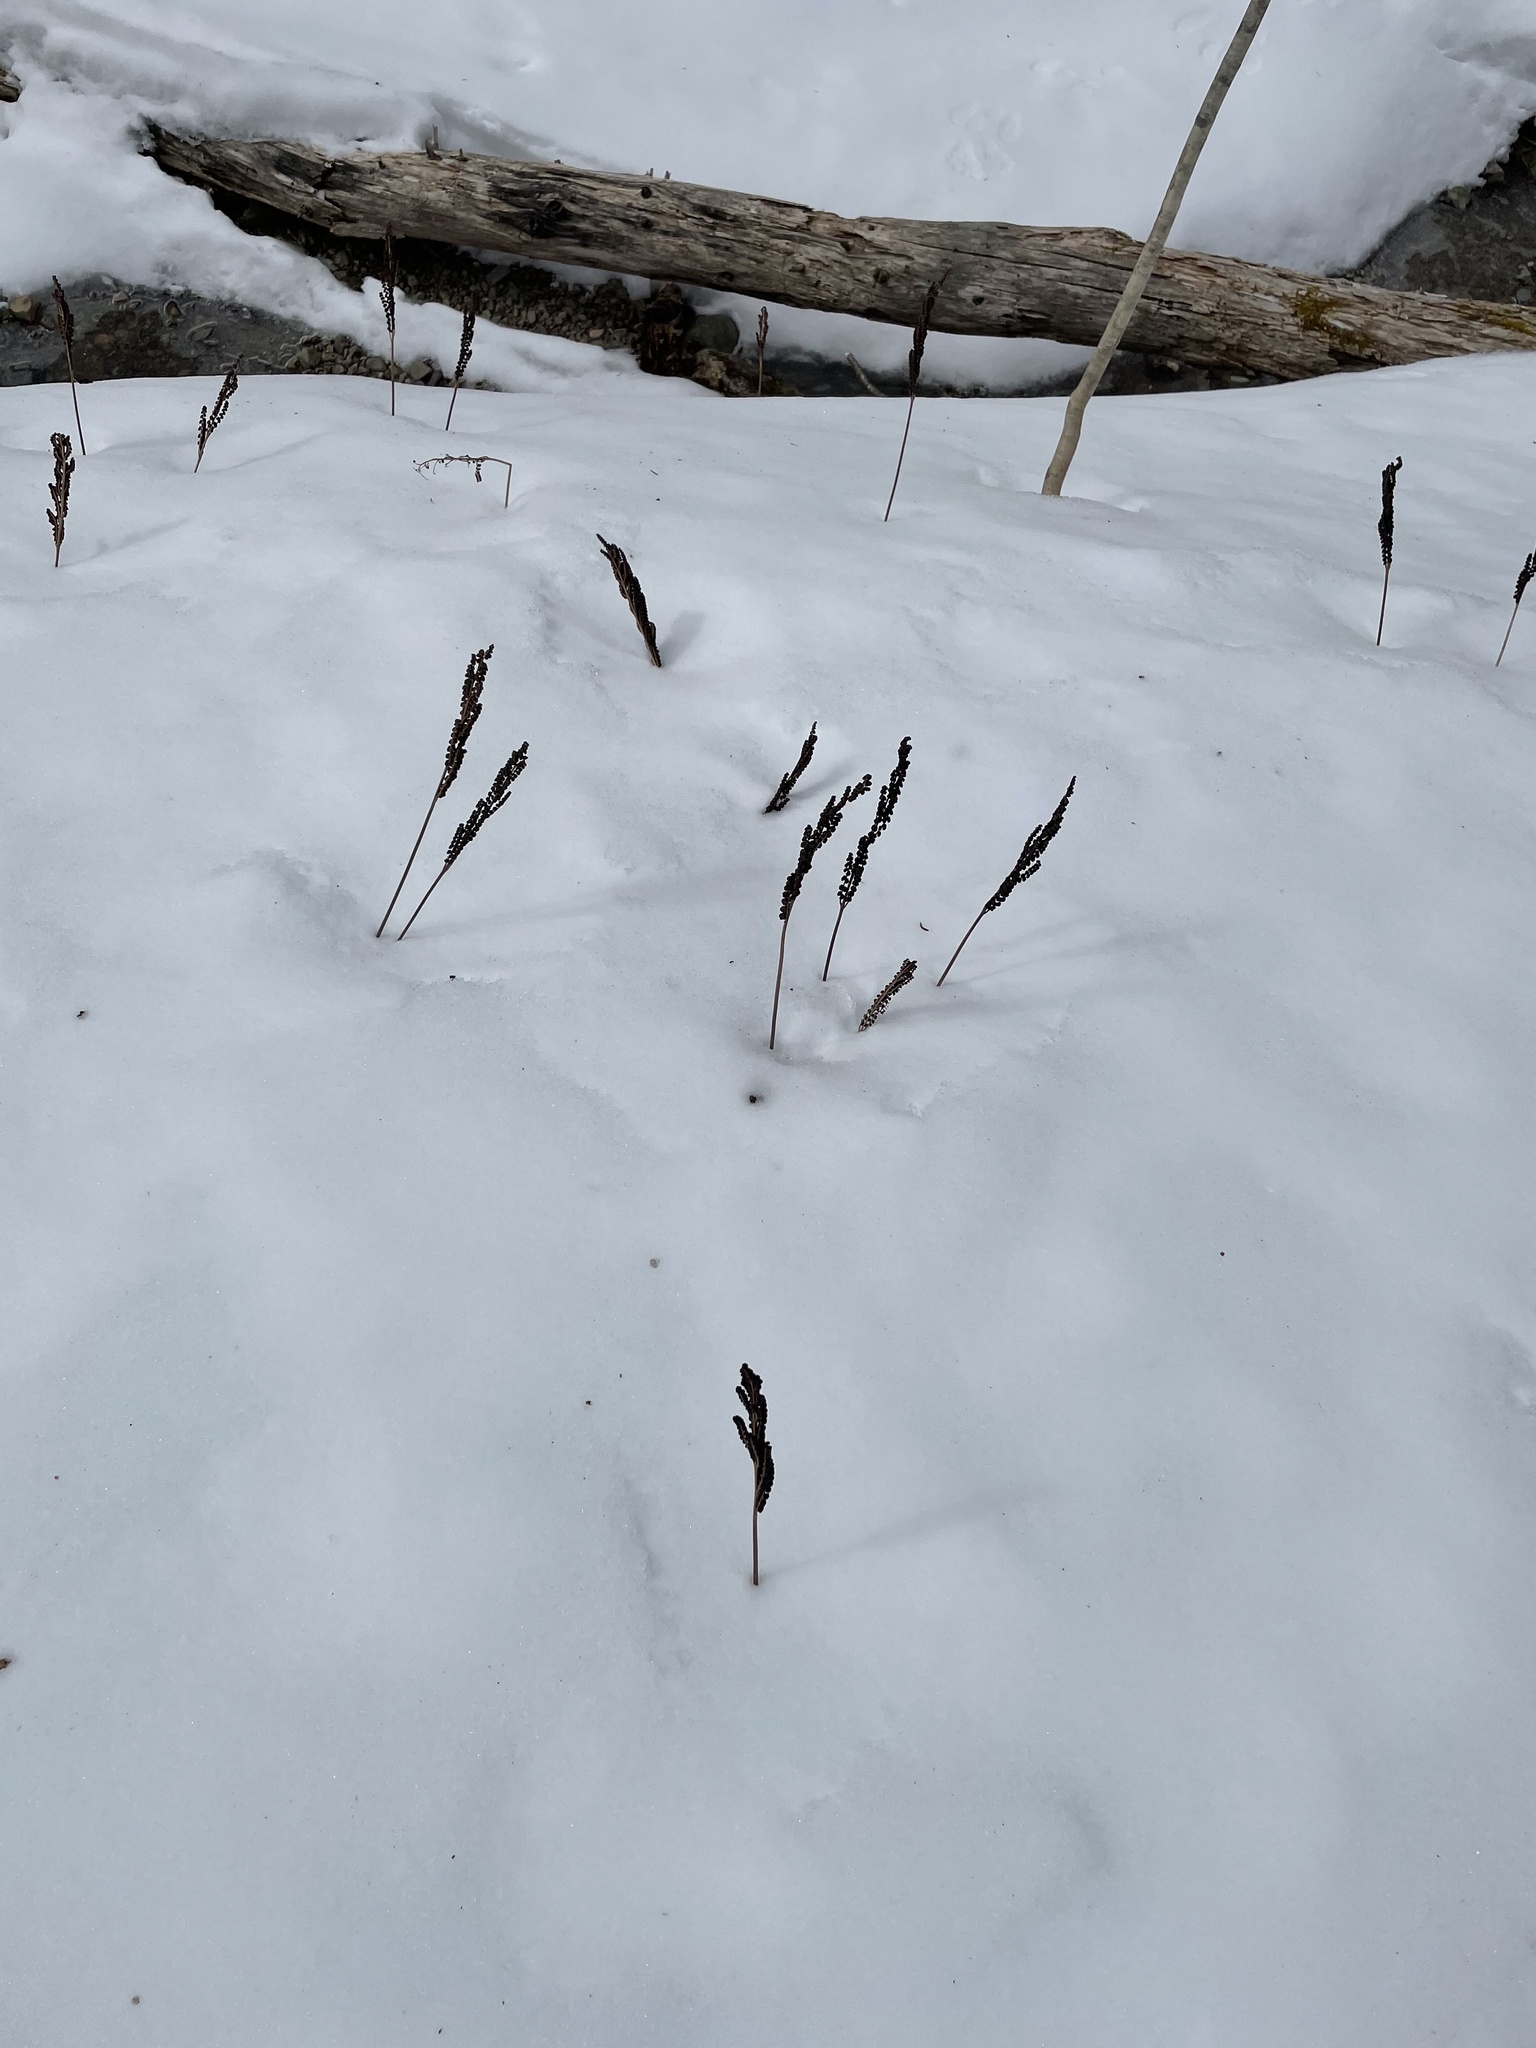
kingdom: Plantae
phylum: Tracheophyta
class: Polypodiopsida
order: Polypodiales
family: Onocleaceae
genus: Onoclea
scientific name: Onoclea sensibilis
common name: Sensitive fern
